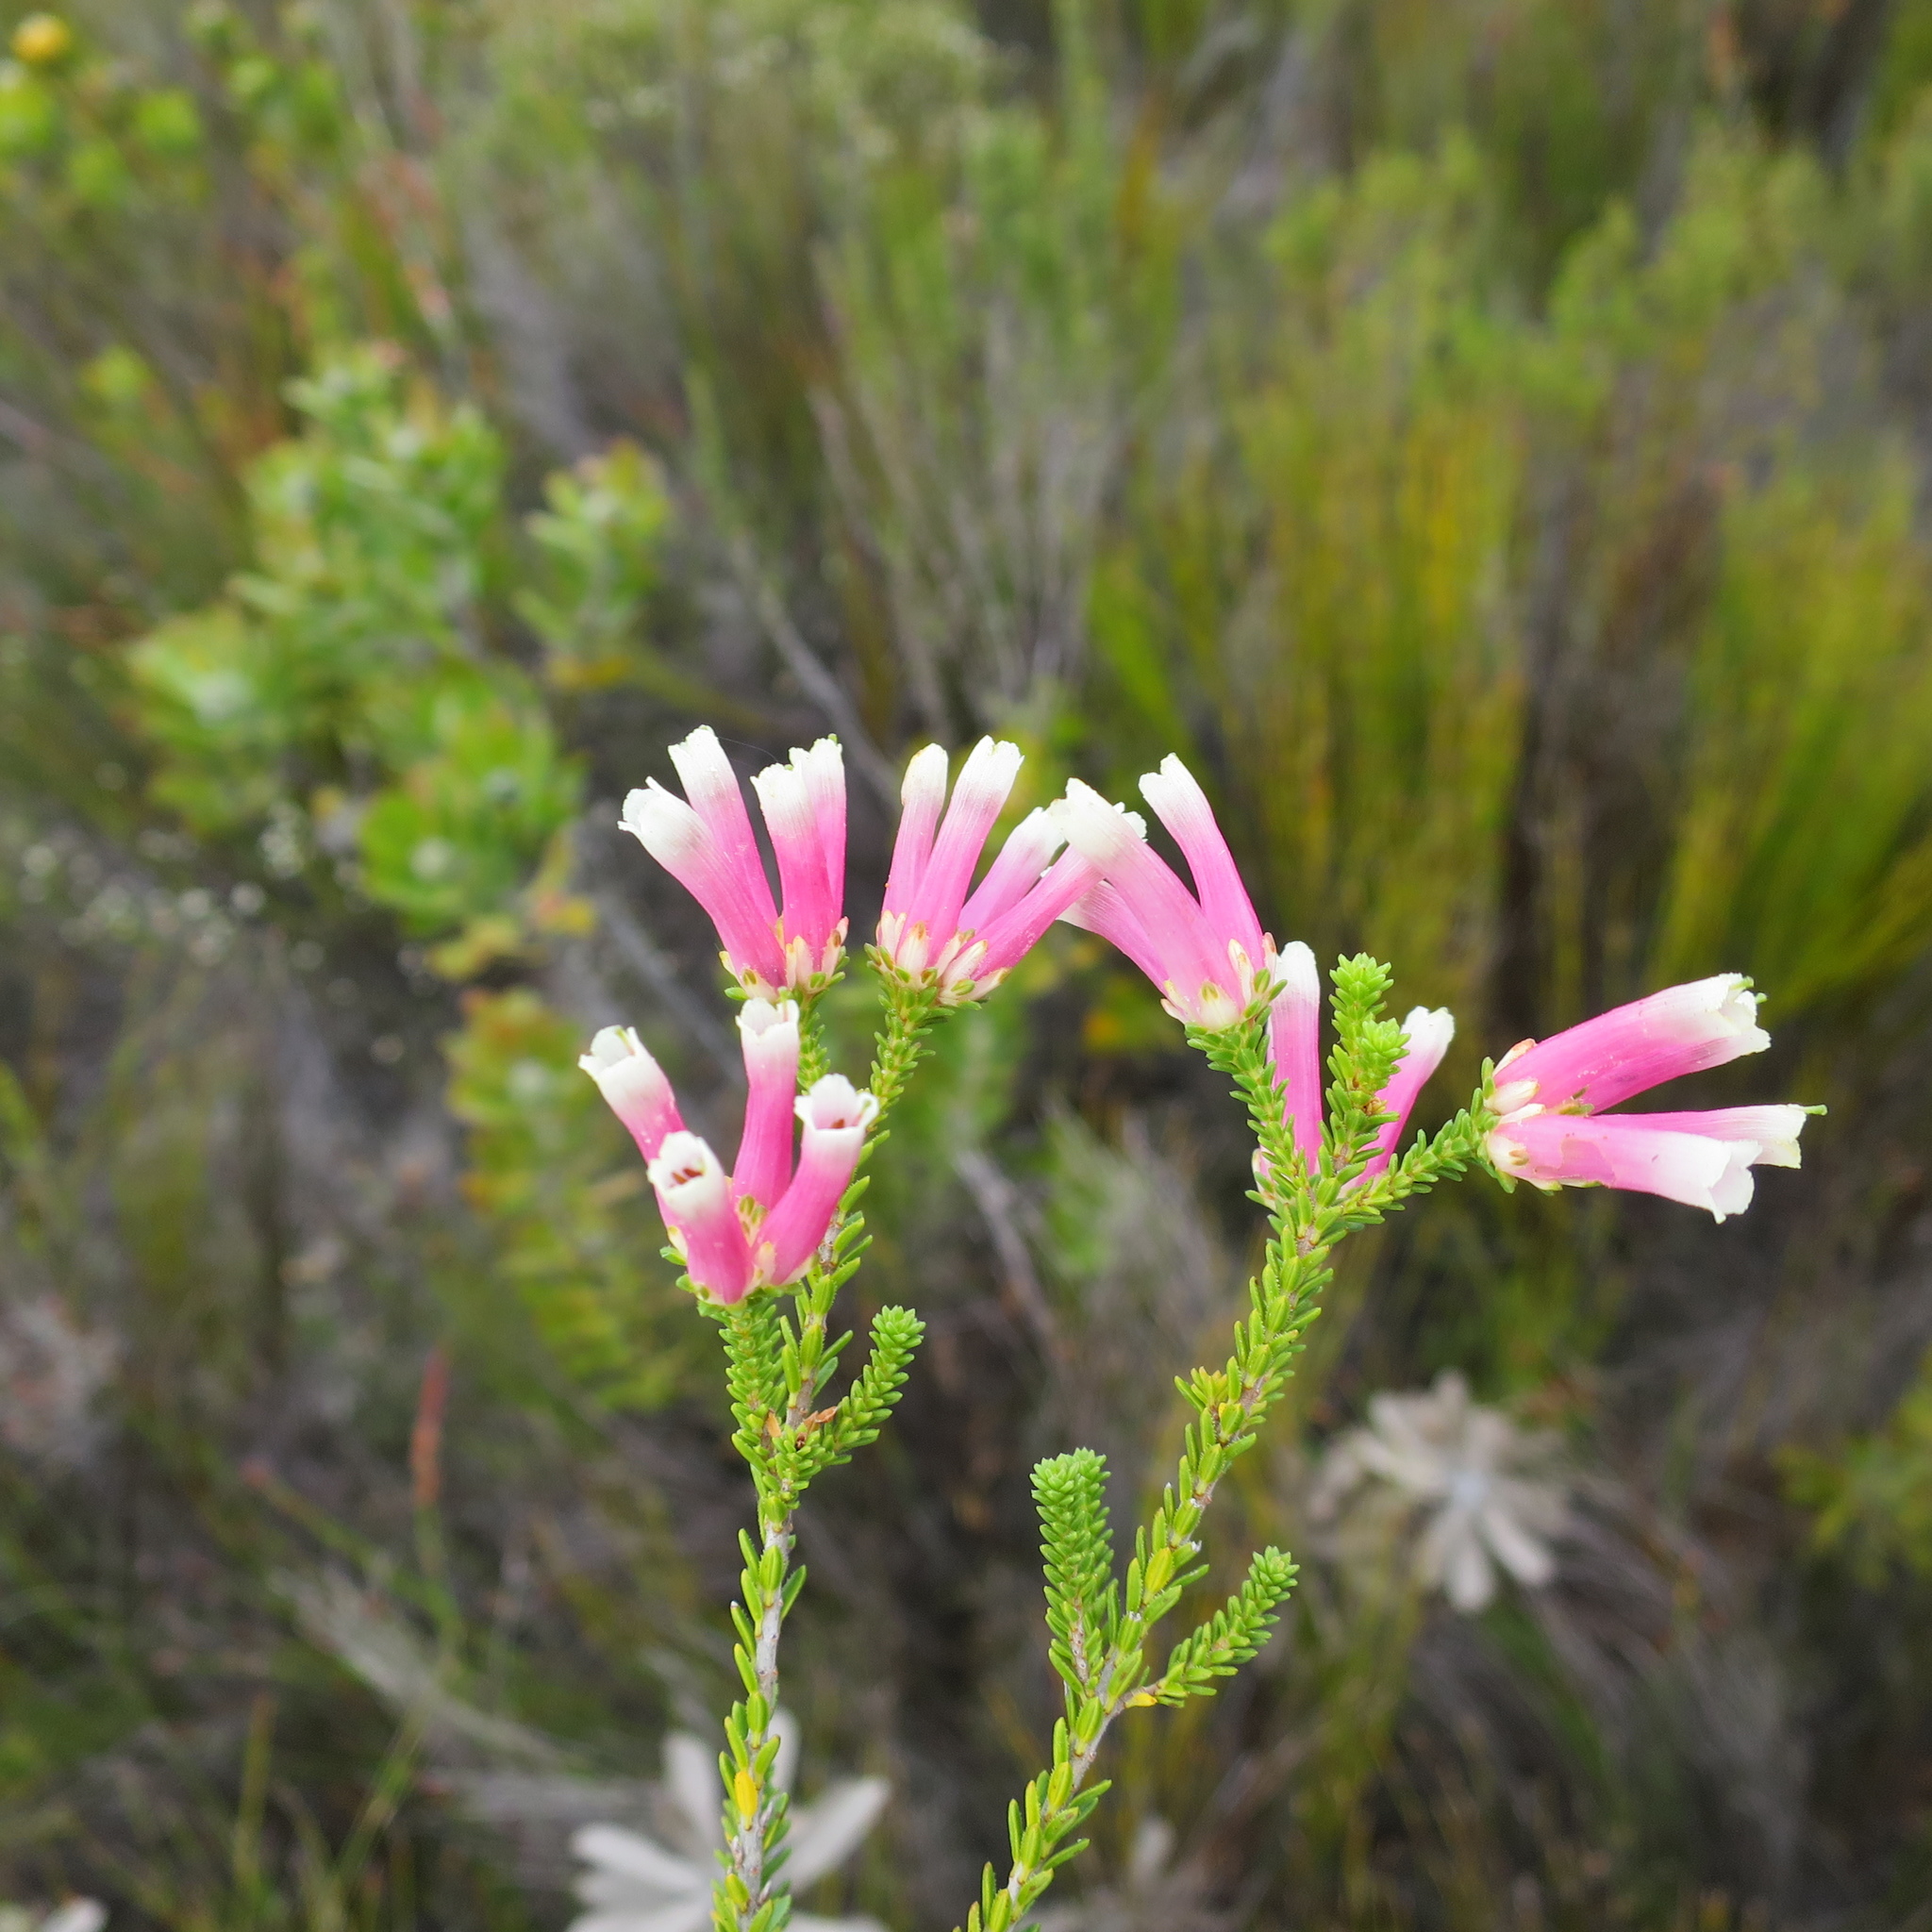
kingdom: Plantae
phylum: Tracheophyta
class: Magnoliopsida
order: Ericales
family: Ericaceae
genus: Erica
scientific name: Erica versicolor
